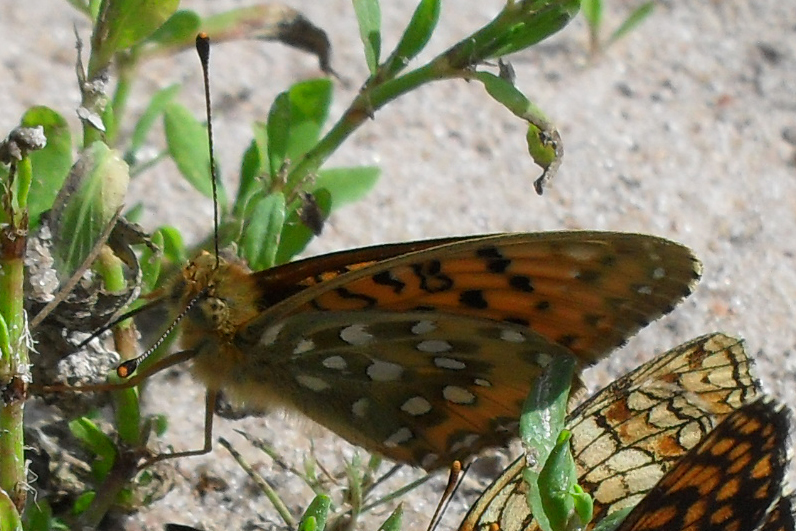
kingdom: Animalia
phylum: Arthropoda
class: Insecta
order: Lepidoptera
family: Nymphalidae
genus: Speyeria
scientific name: Speyeria aglaja
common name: Dark green fritillary
